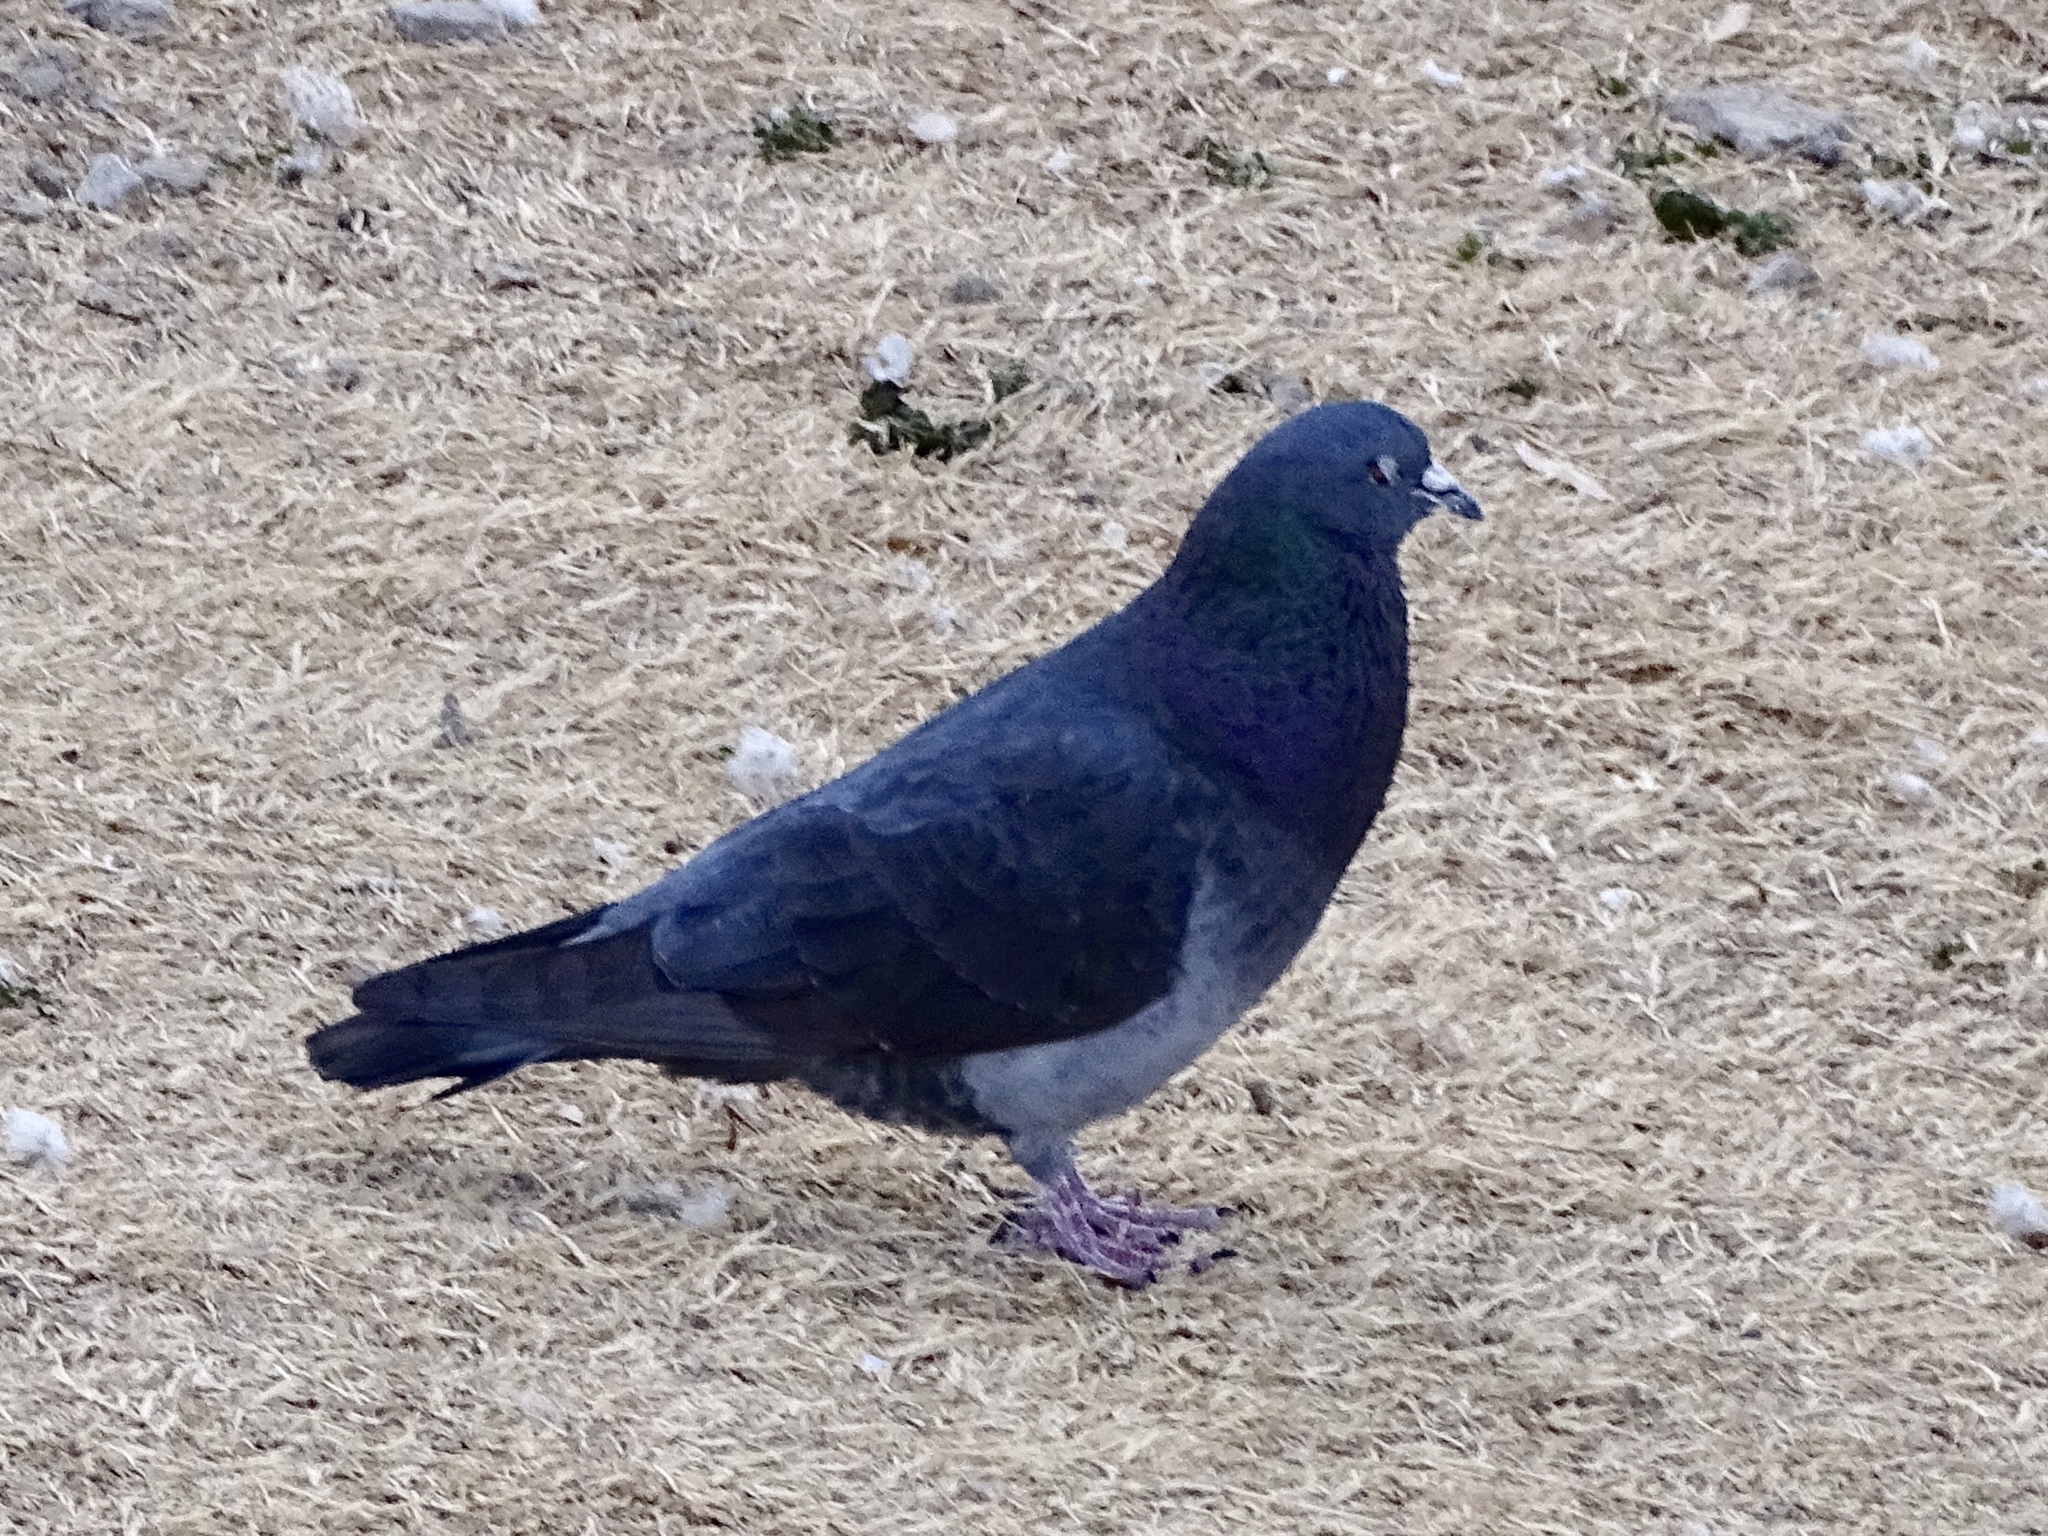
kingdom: Animalia
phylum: Chordata
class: Aves
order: Columbiformes
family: Columbidae
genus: Columba
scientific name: Columba livia
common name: Rock pigeon
